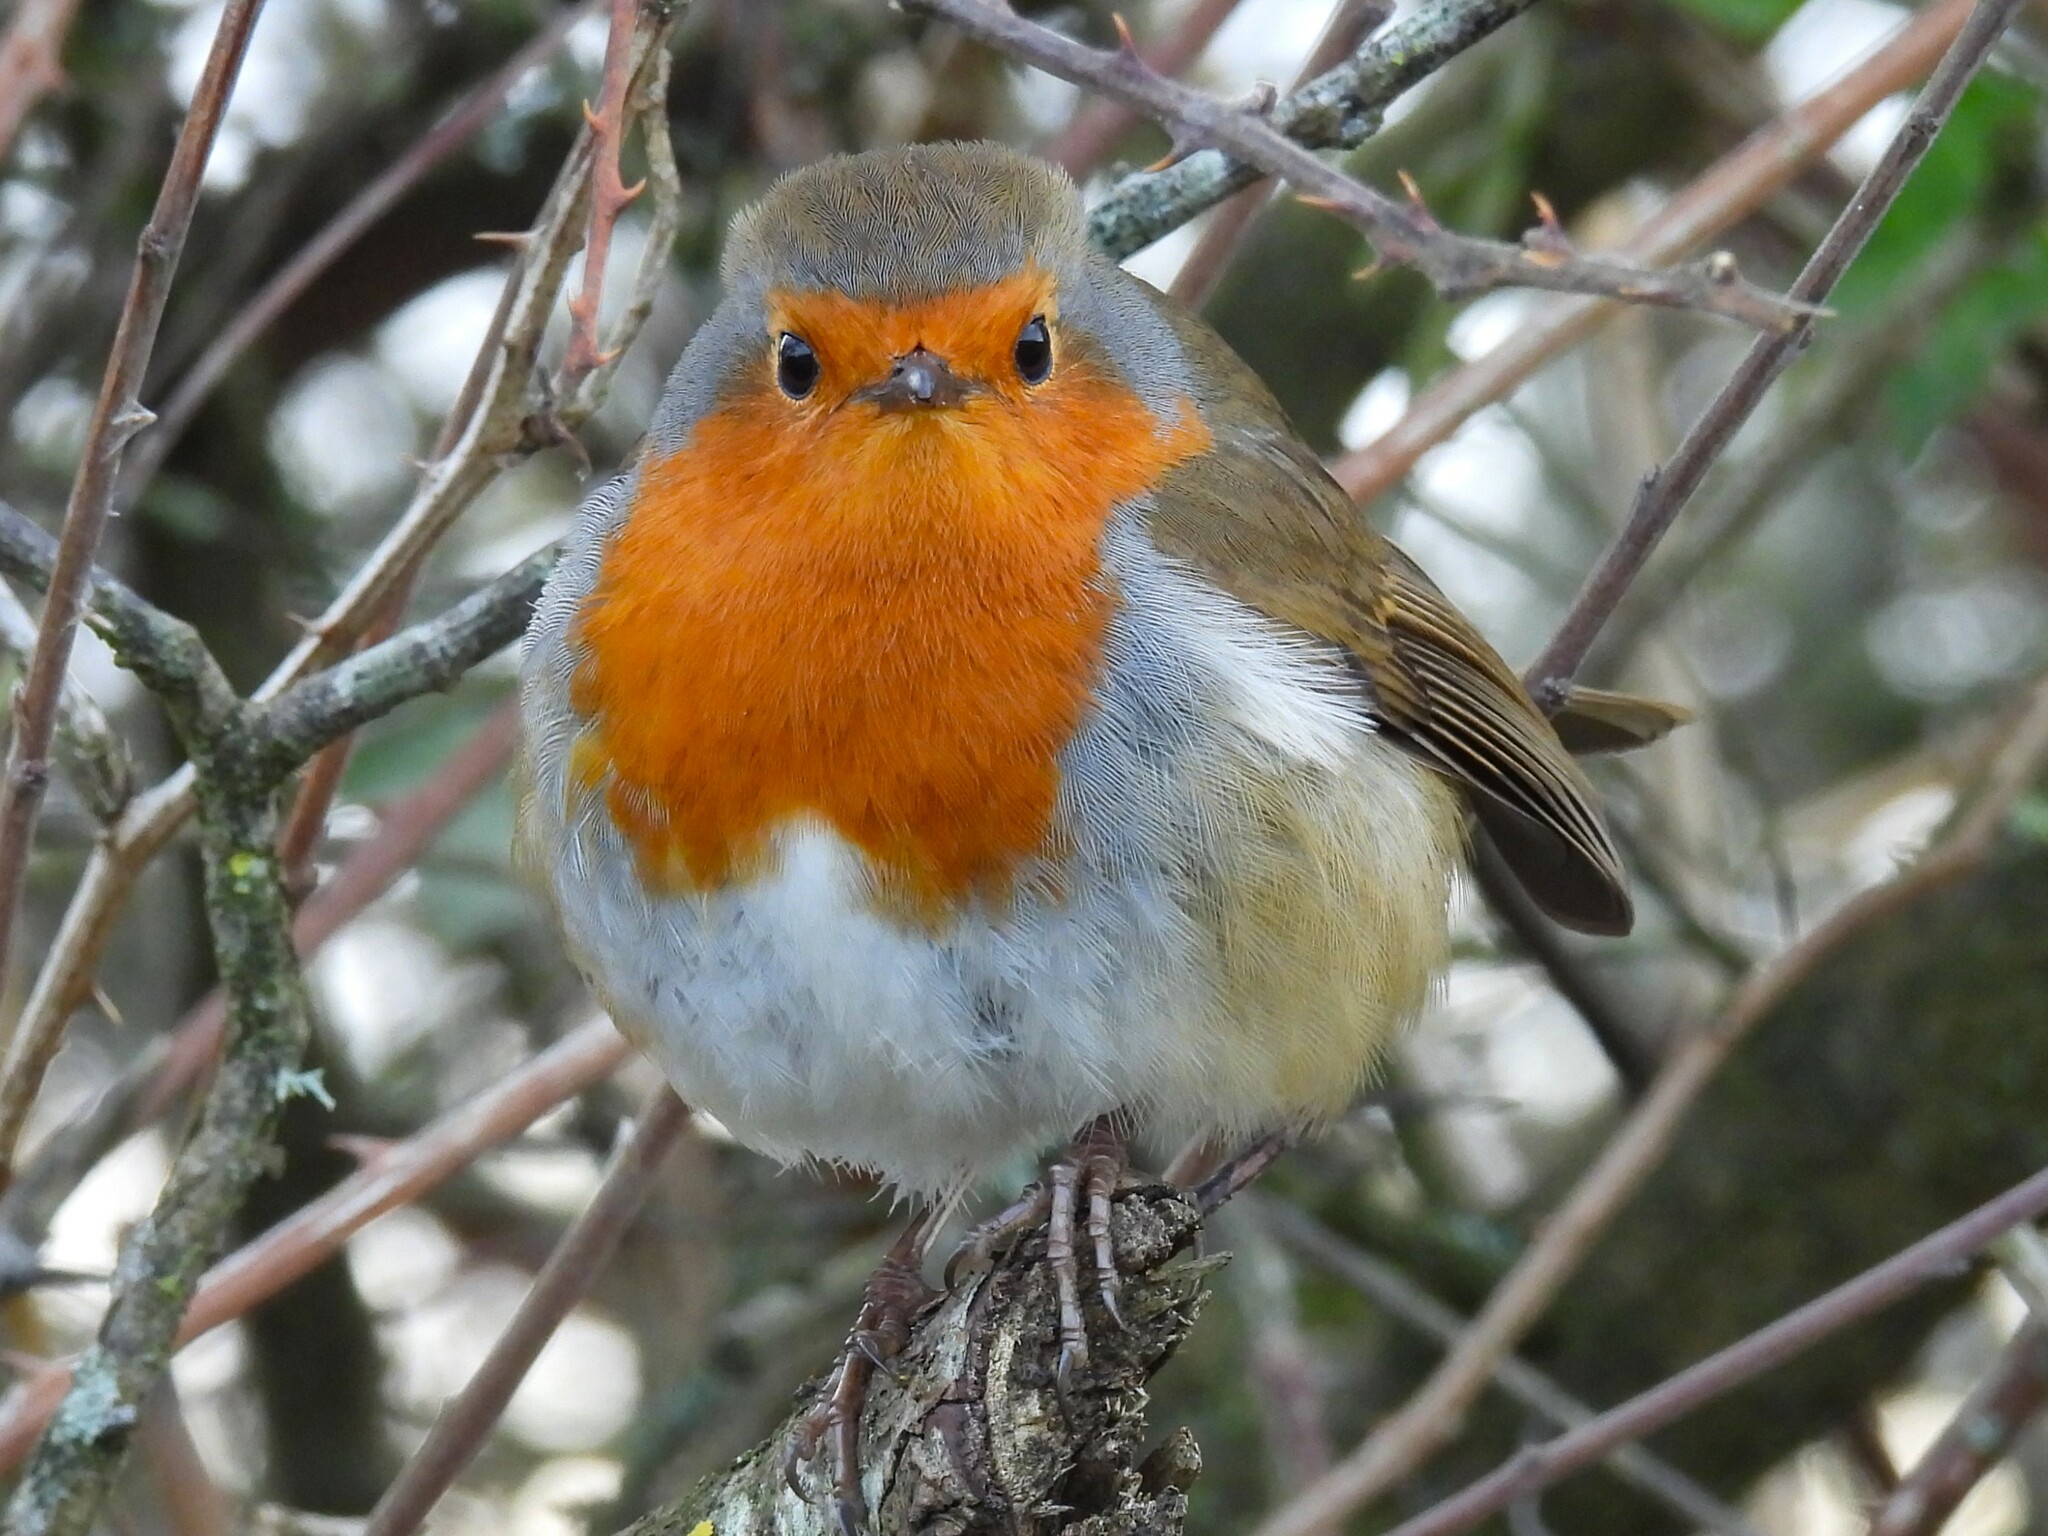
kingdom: Animalia
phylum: Chordata
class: Aves
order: Passeriformes
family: Muscicapidae
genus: Erithacus
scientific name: Erithacus rubecula
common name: European robin
